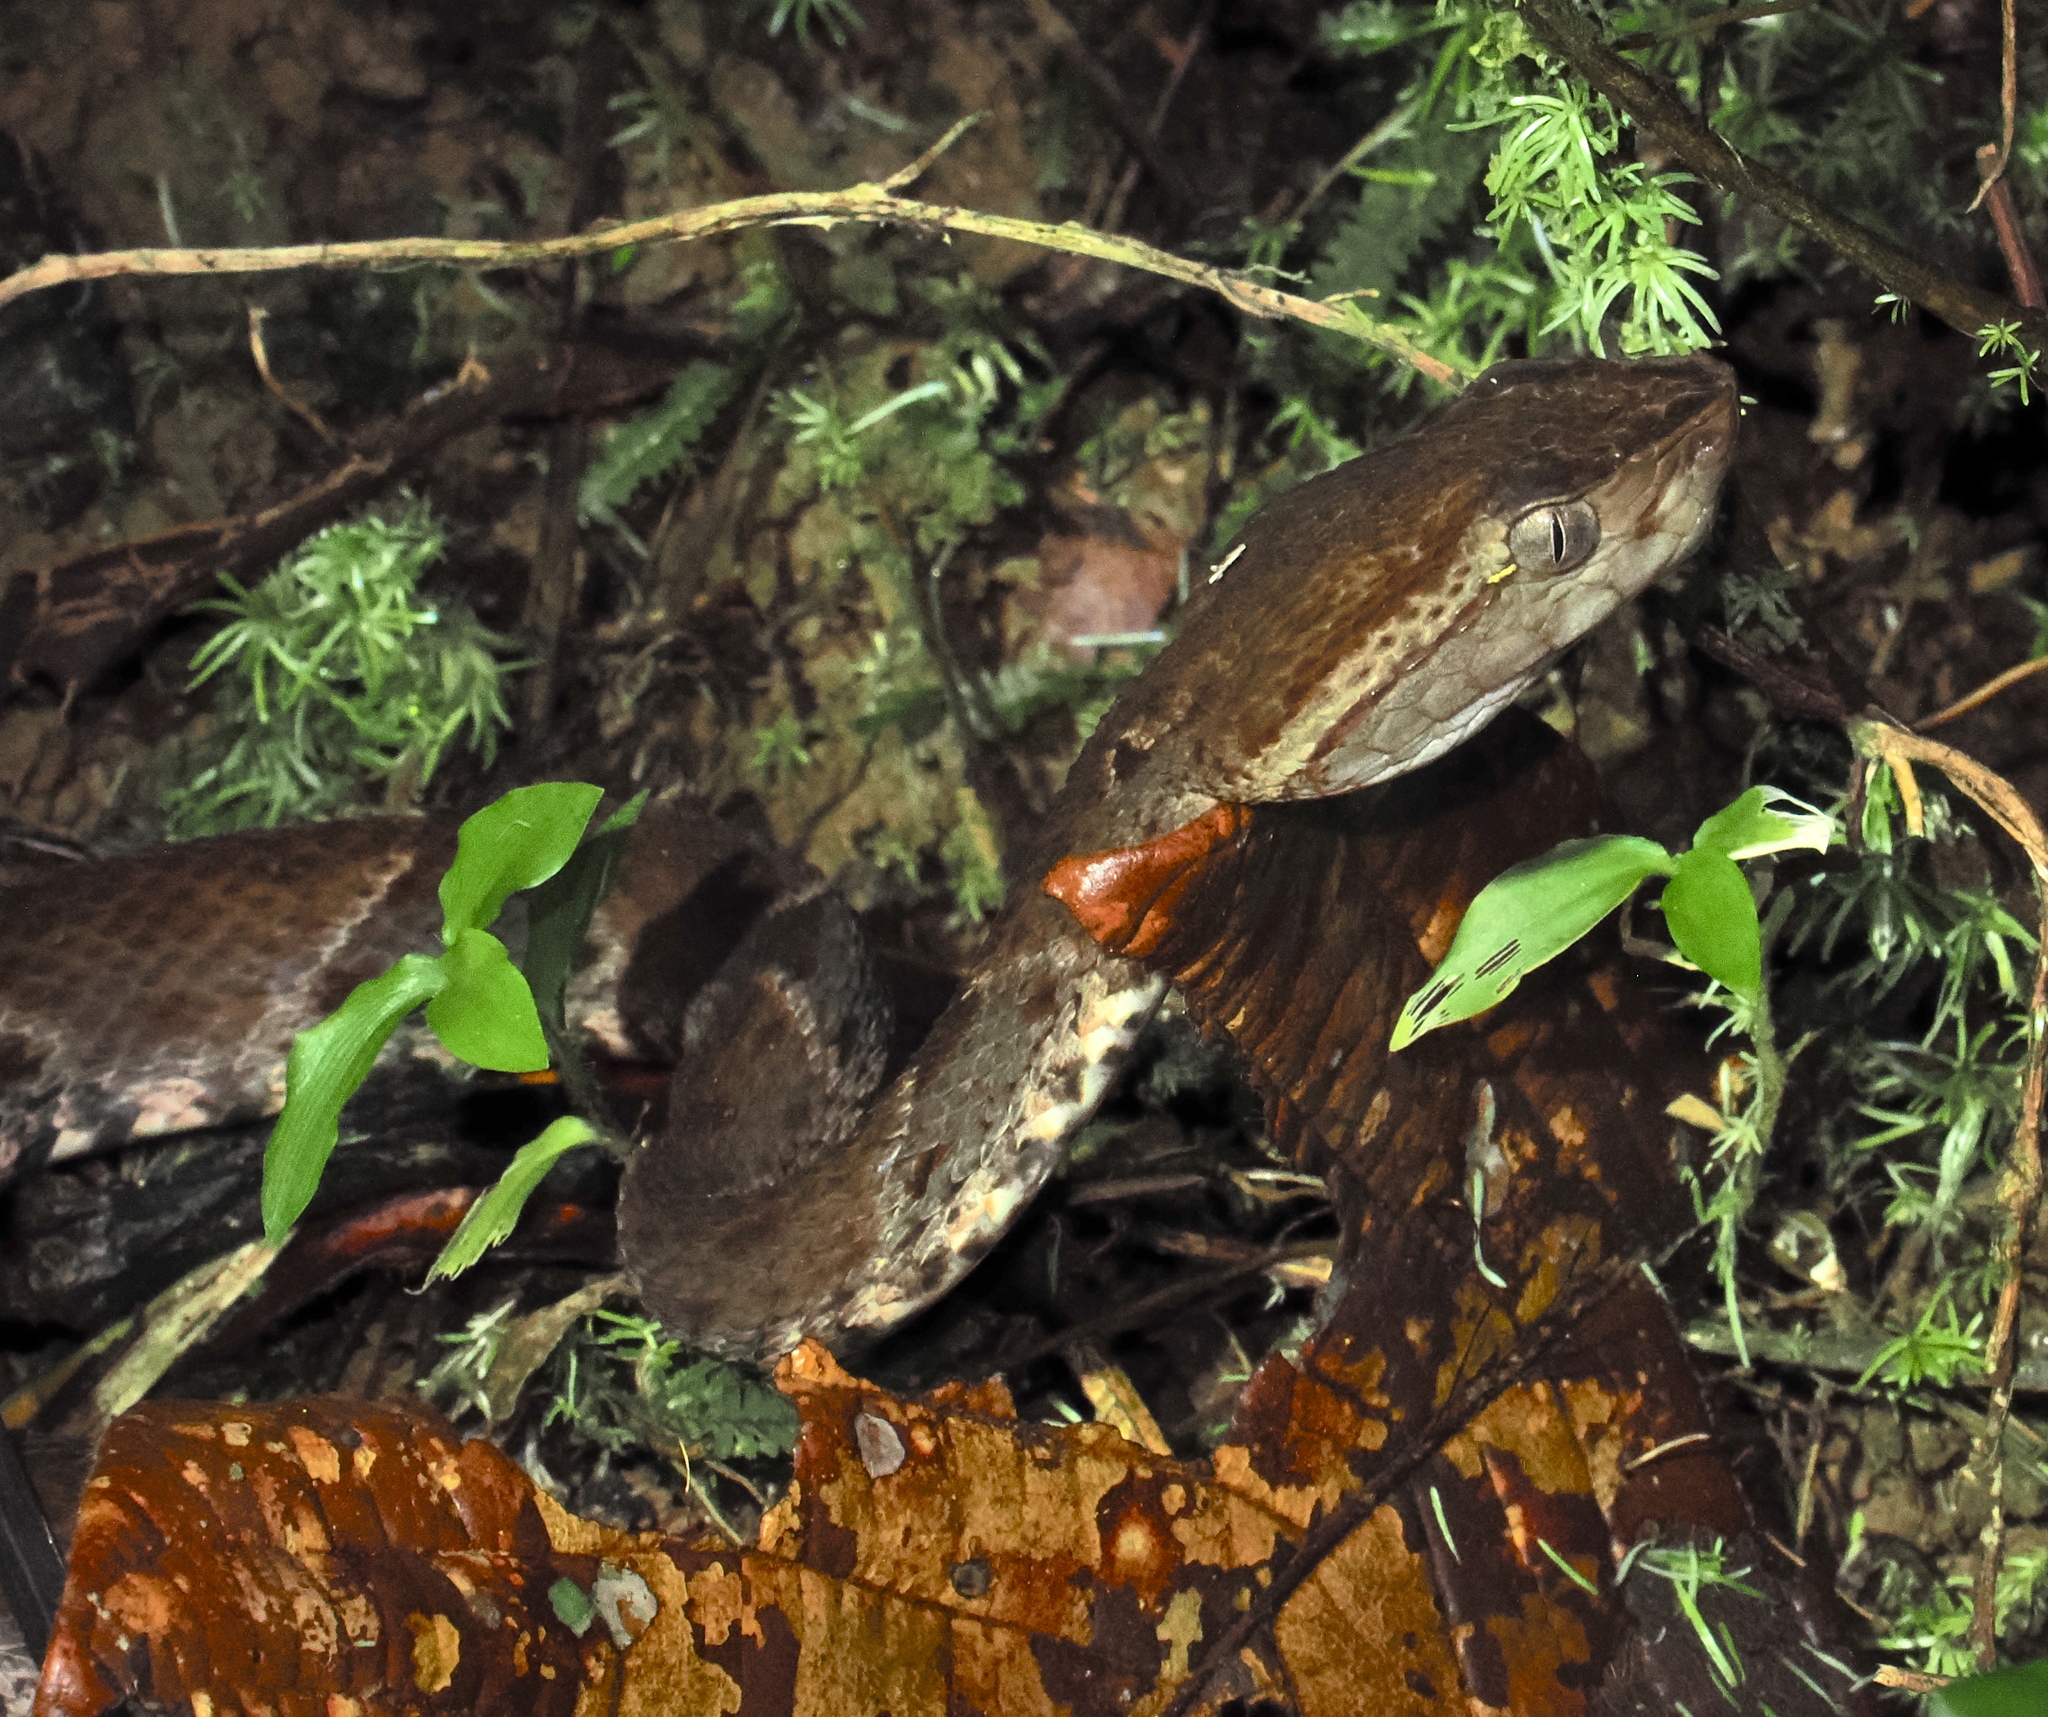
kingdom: Animalia
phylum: Chordata
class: Squamata
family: Viperidae
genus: Bothrops
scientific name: Bothrops asper
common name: Terciopelo
